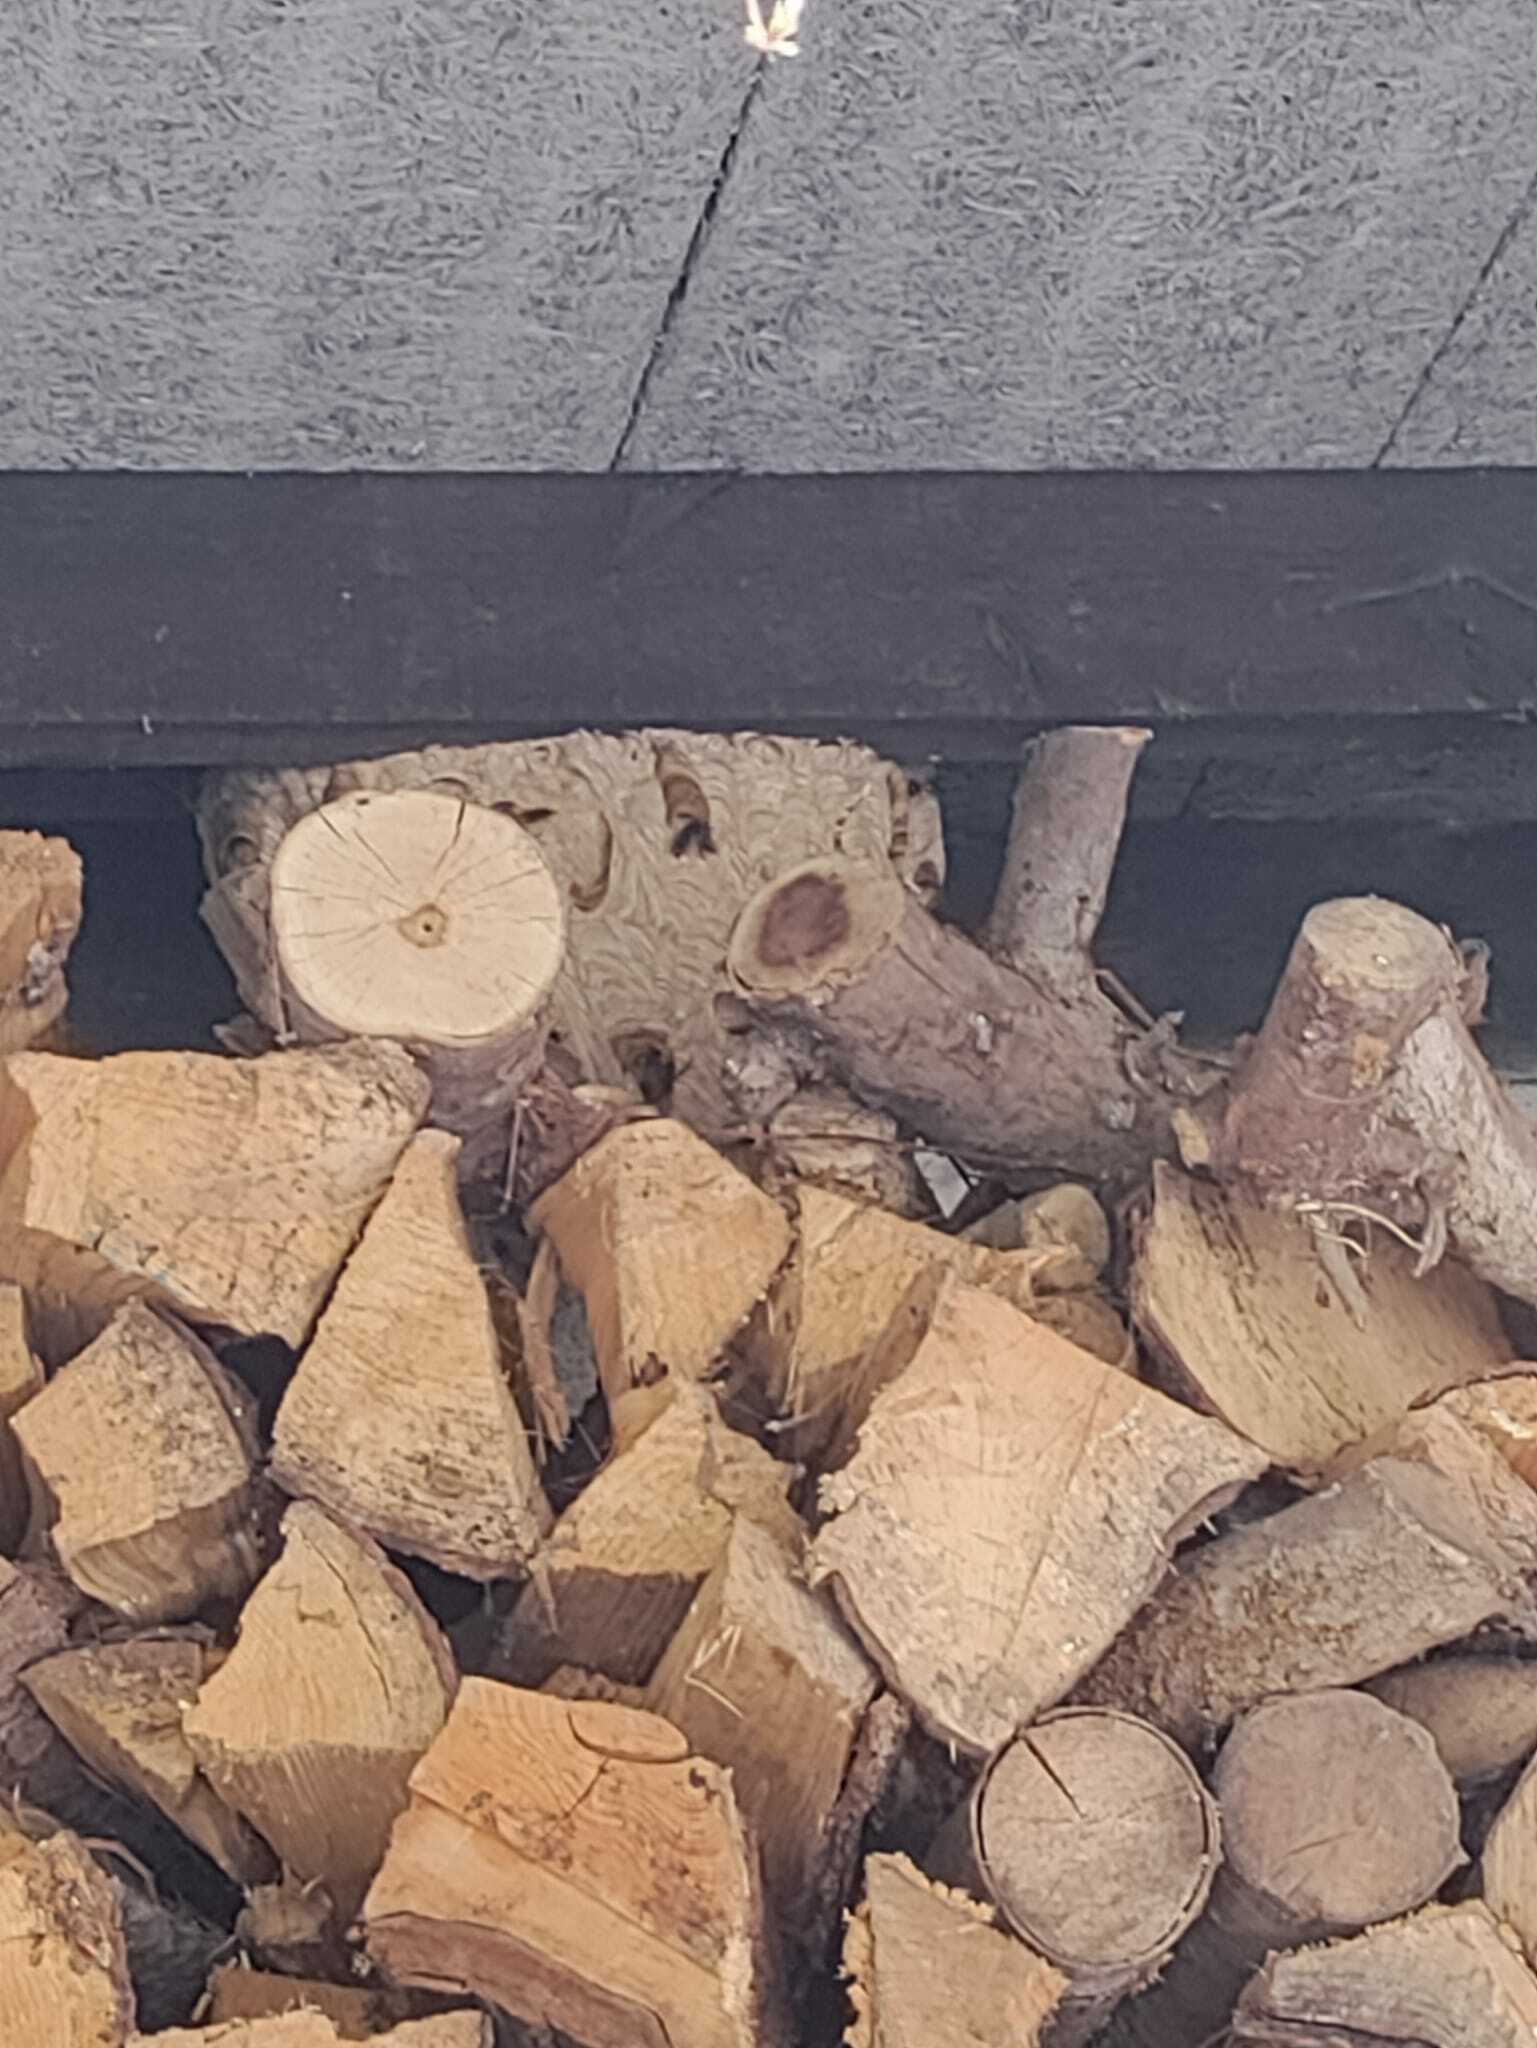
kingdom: Animalia
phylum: Arthropoda
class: Insecta
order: Hymenoptera
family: Vespidae
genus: Vespa
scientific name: Vespa velutina
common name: Asian hornet
